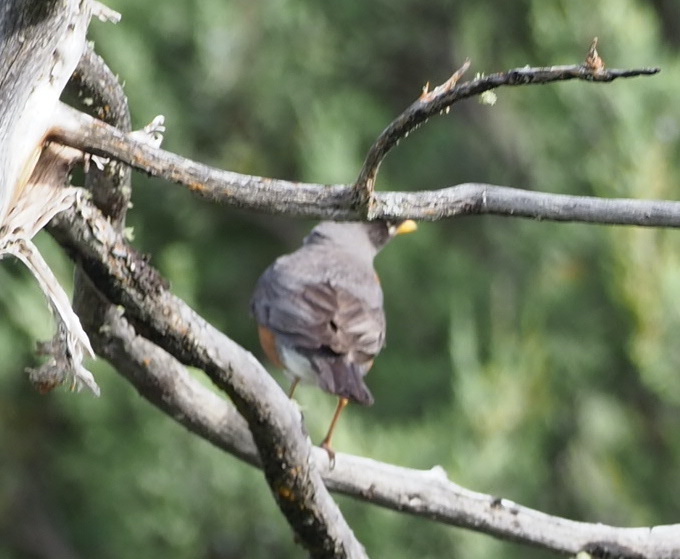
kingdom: Animalia
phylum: Chordata
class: Aves
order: Passeriformes
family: Turdidae
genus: Turdus
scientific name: Turdus migratorius
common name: American robin
